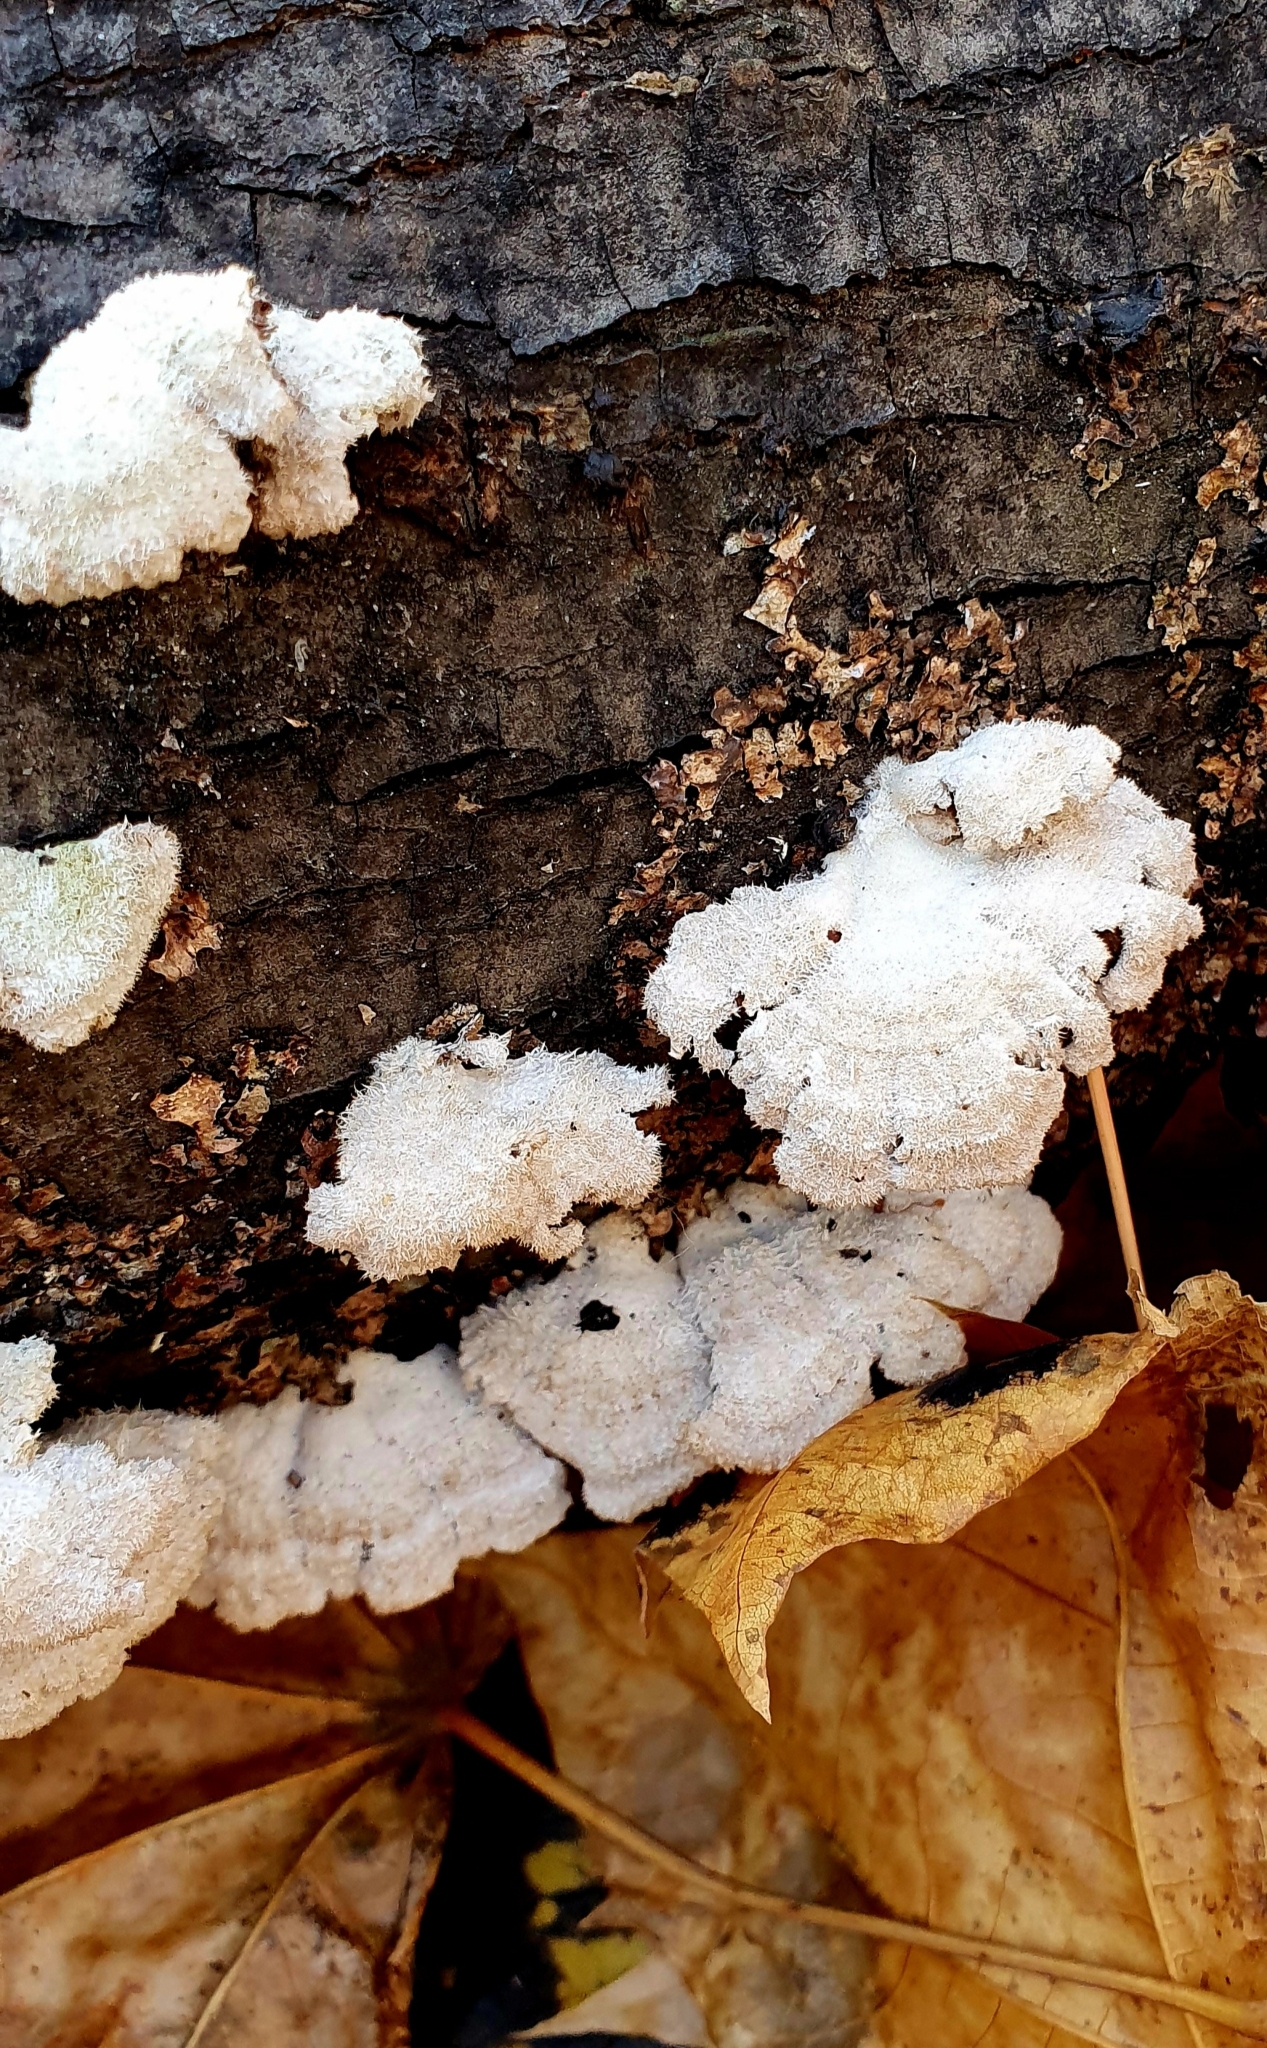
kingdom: Fungi
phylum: Basidiomycota
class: Agaricomycetes
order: Agaricales
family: Schizophyllaceae
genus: Schizophyllum
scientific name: Schizophyllum commune
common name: Common porecrust
